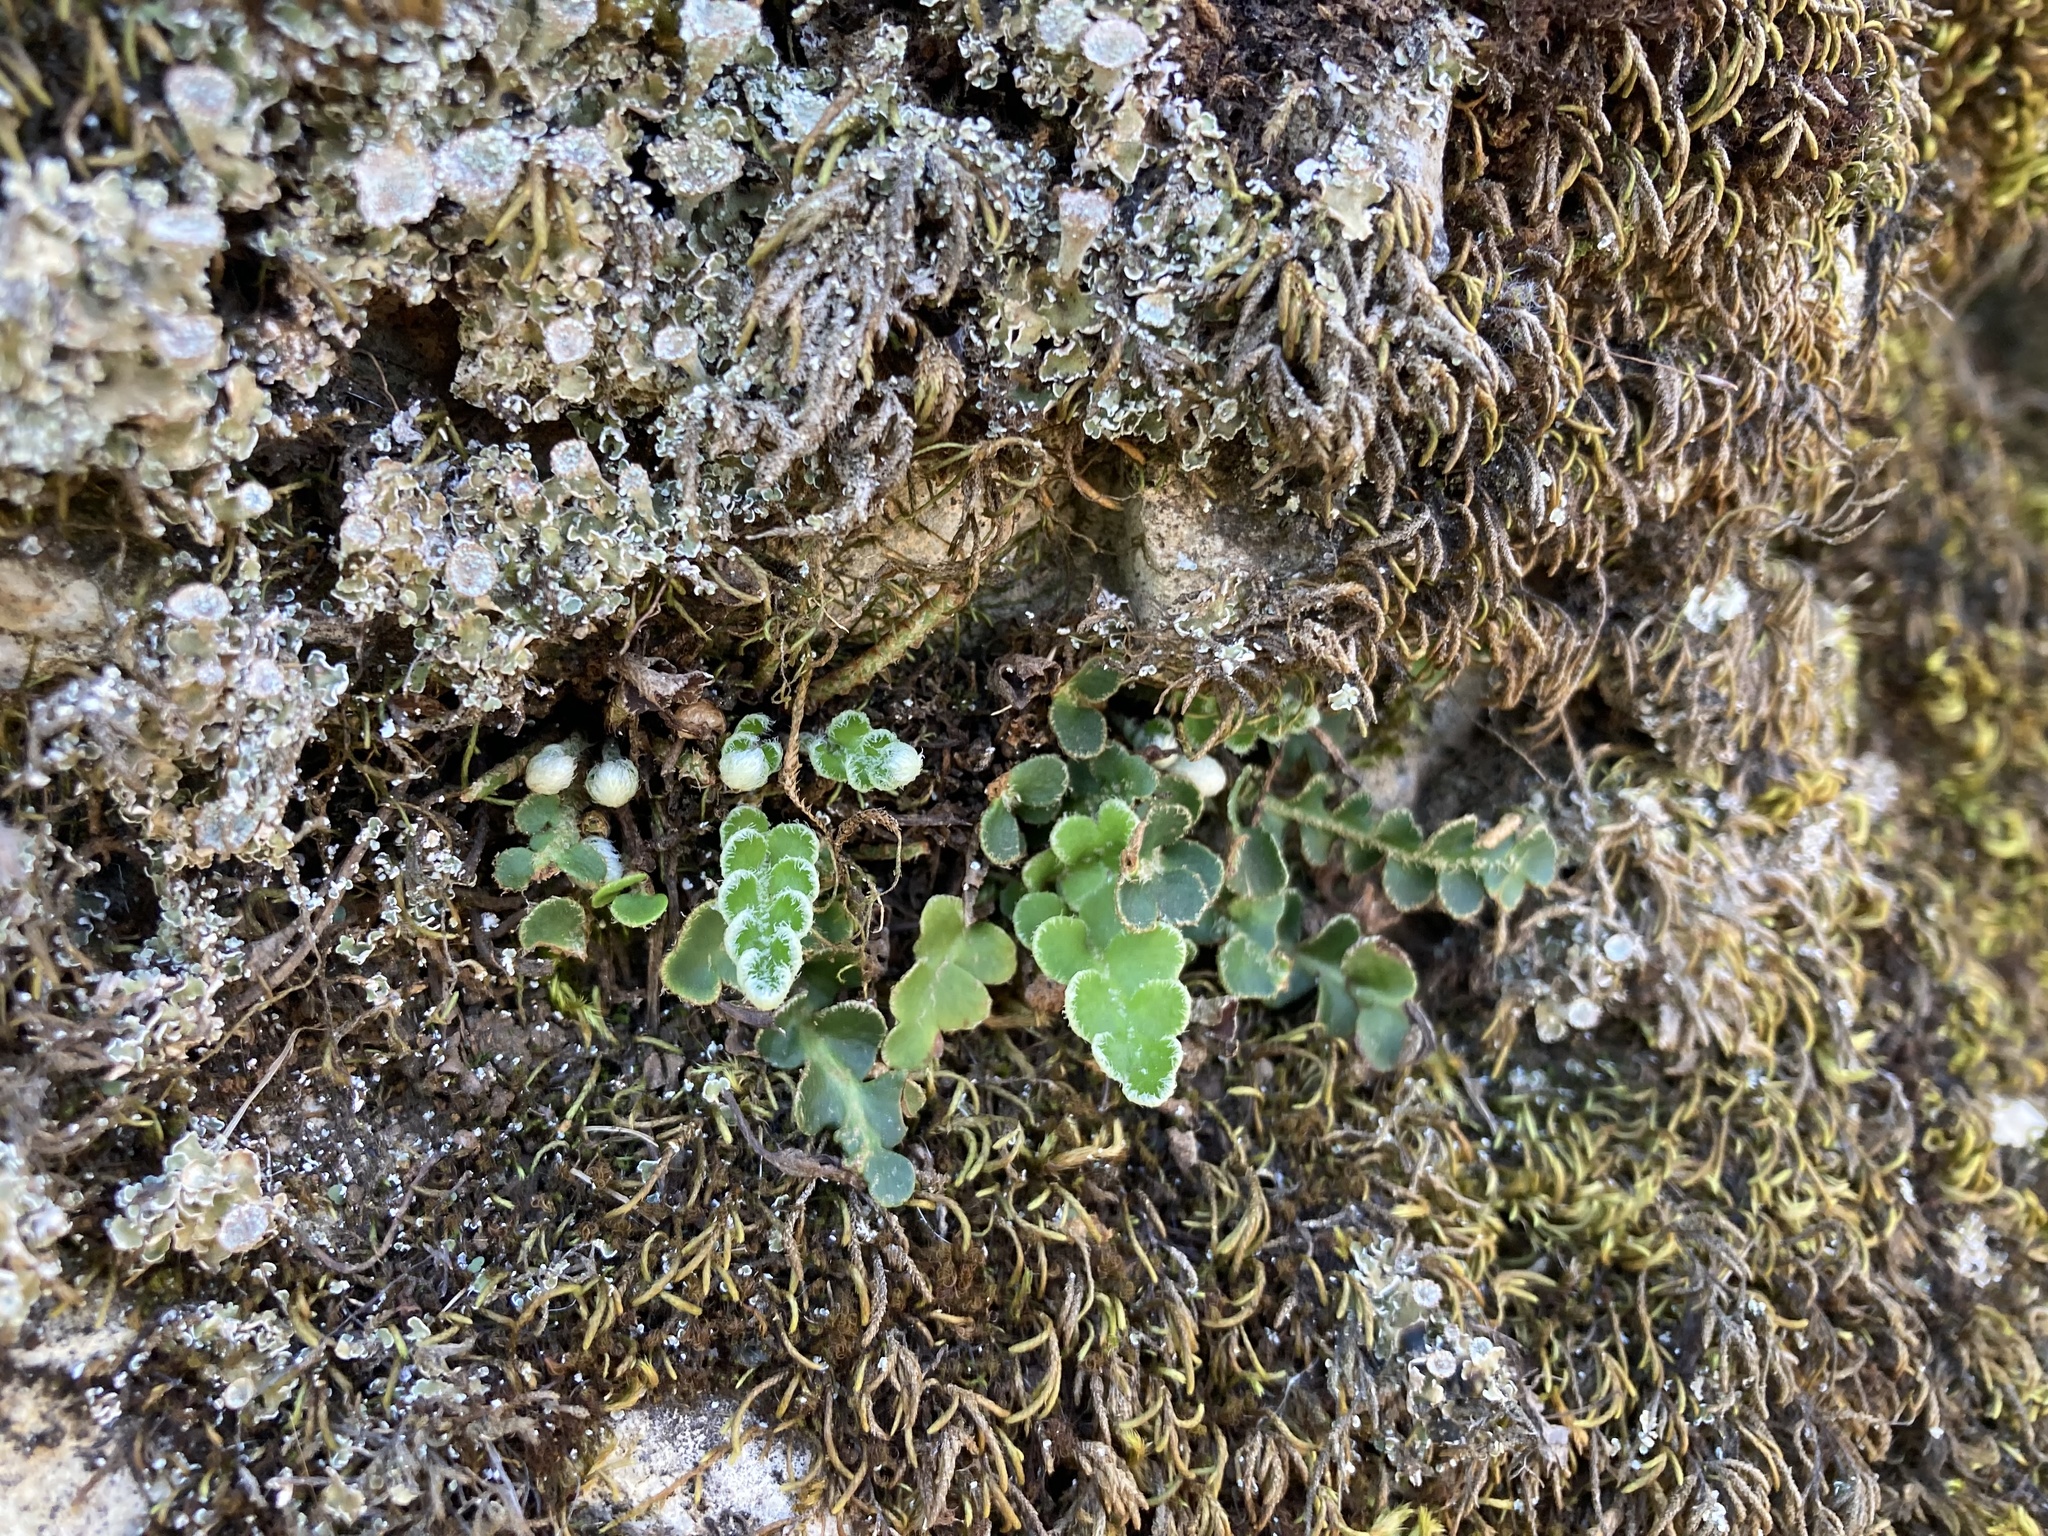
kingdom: Plantae
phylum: Tracheophyta
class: Polypodiopsida
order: Polypodiales
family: Aspleniaceae
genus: Asplenium
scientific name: Asplenium ceterach
